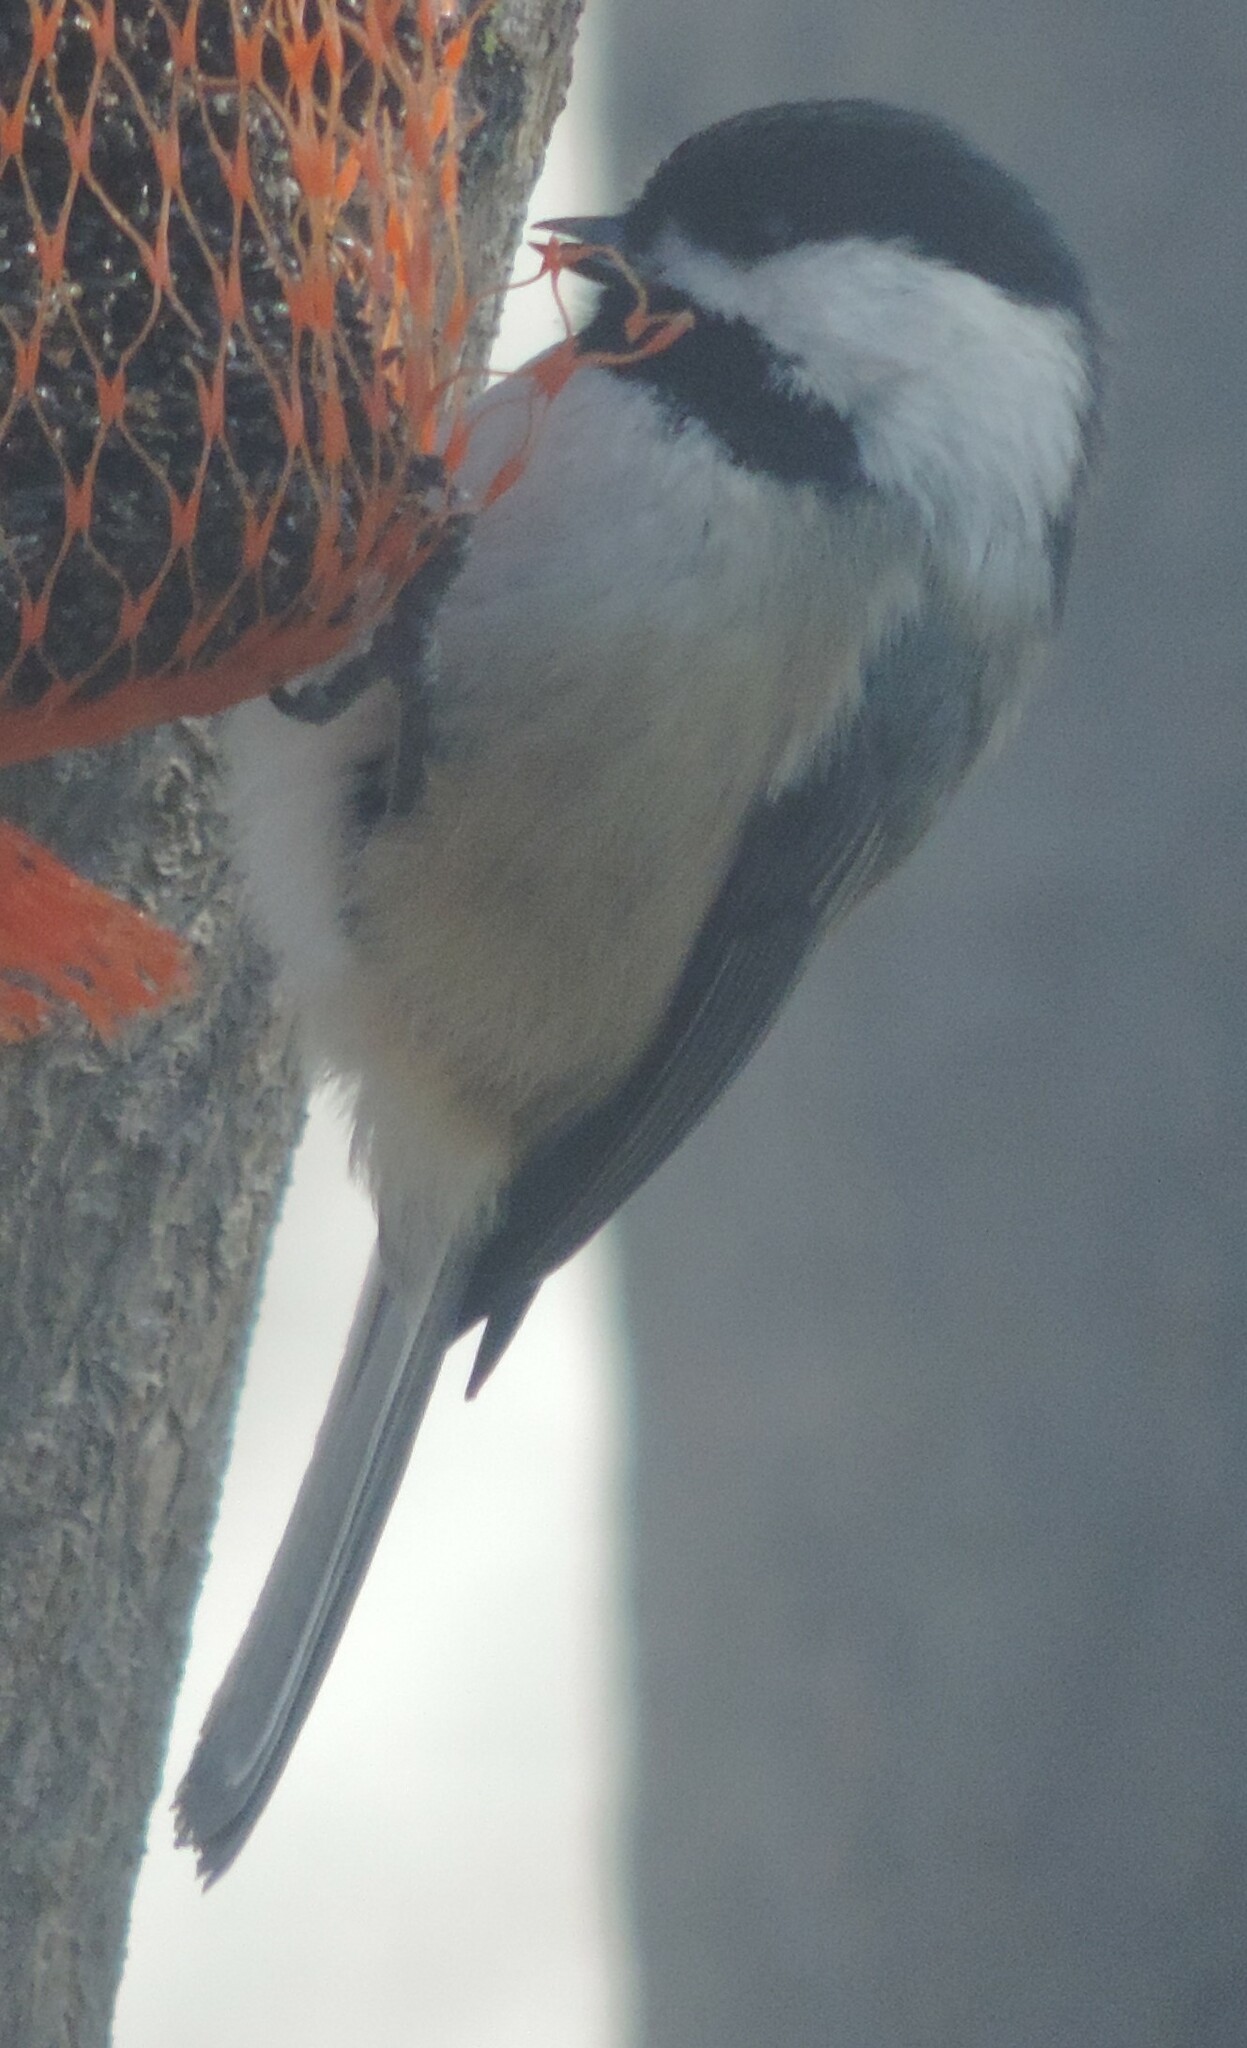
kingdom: Animalia
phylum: Chordata
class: Aves
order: Passeriformes
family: Paridae
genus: Poecile
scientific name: Poecile atricapillus
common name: Black-capped chickadee
